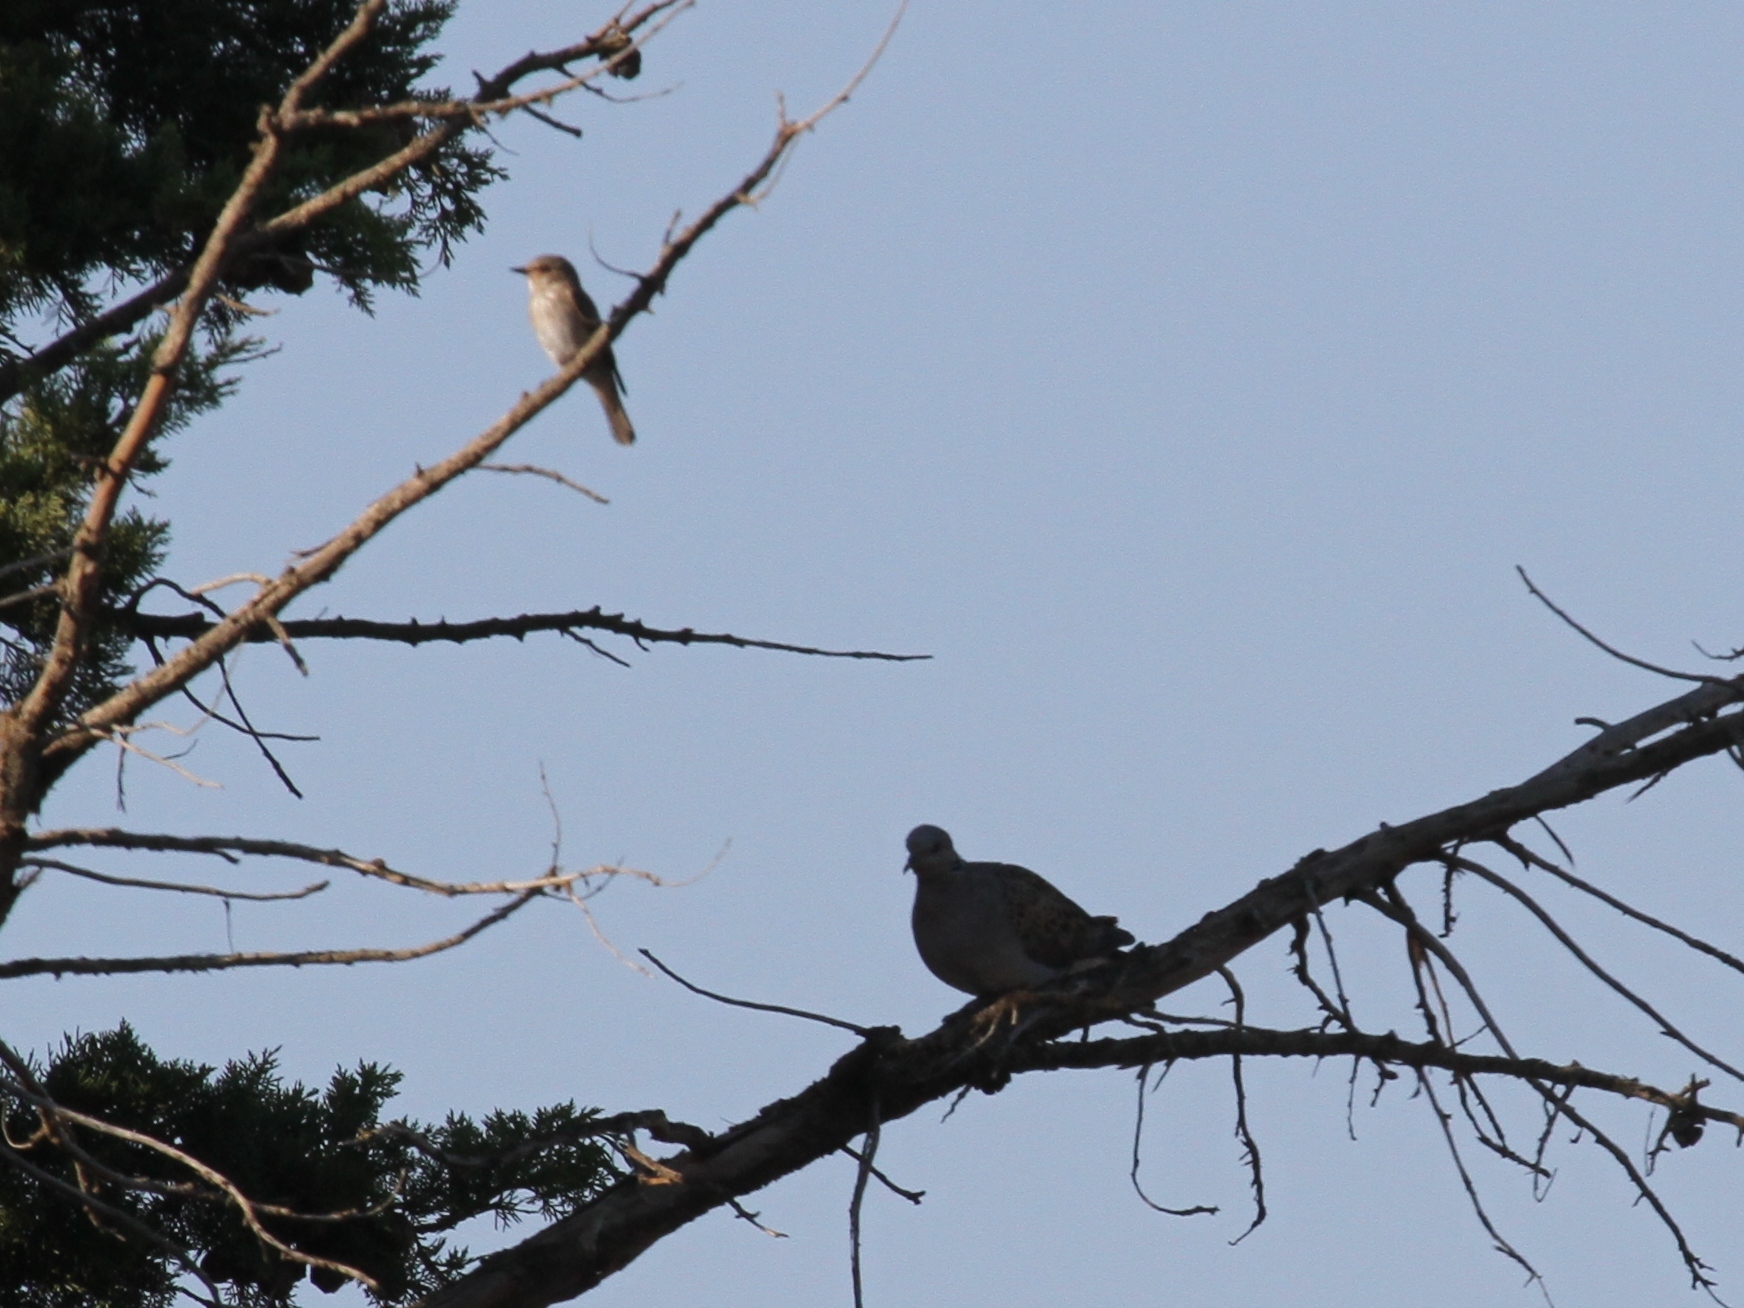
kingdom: Animalia
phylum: Chordata
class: Aves
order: Passeriformes
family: Muscicapidae
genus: Muscicapa
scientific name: Muscicapa striata
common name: Spotted flycatcher
